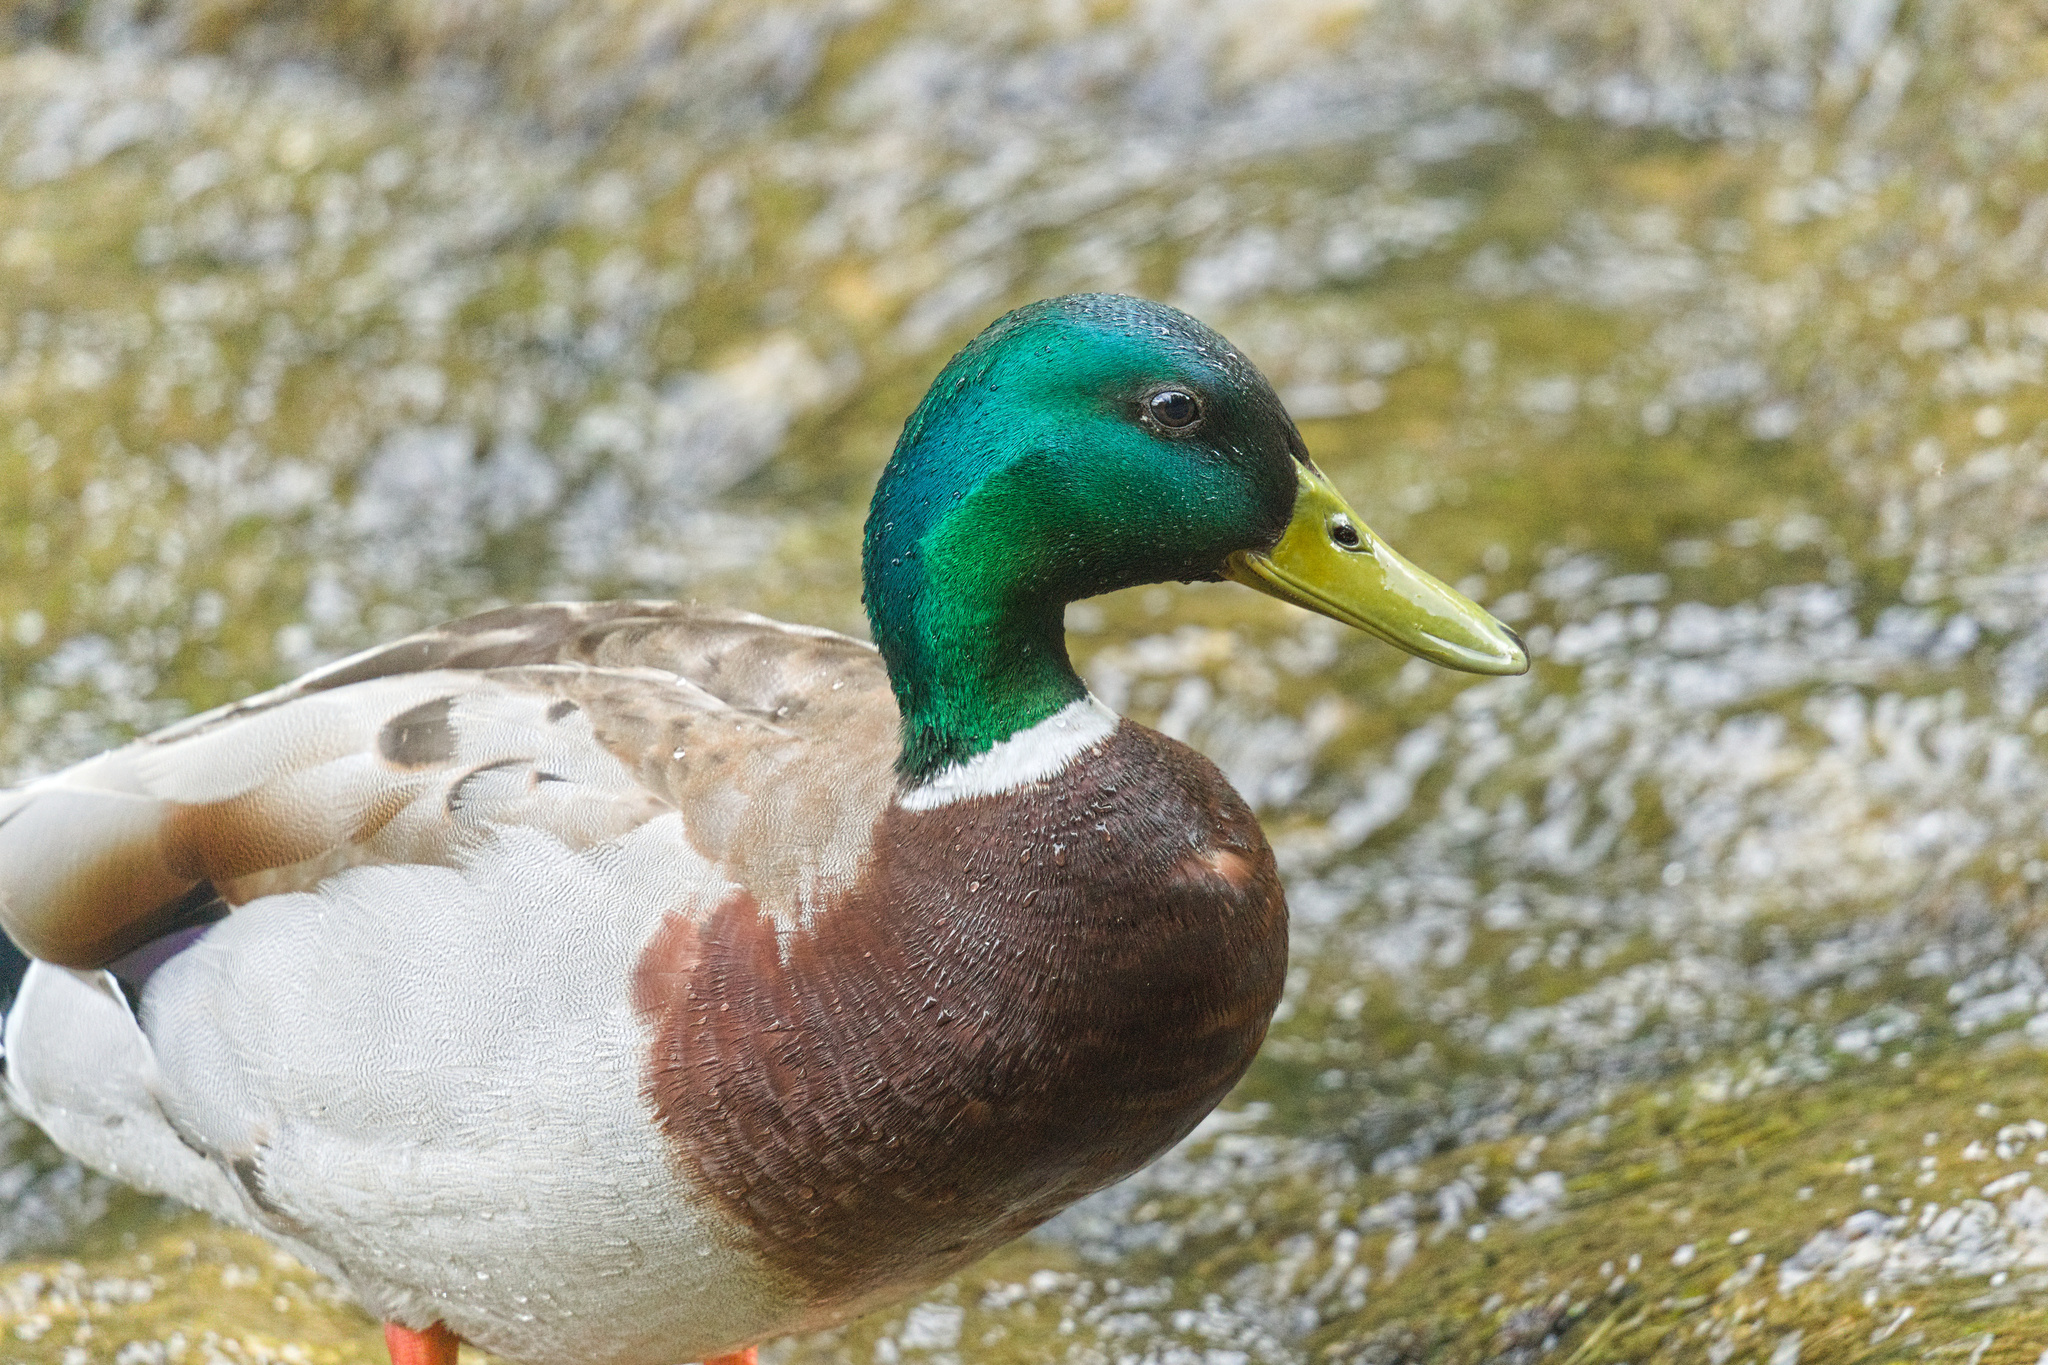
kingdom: Animalia
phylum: Chordata
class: Aves
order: Anseriformes
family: Anatidae
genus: Anas
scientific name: Anas platyrhynchos
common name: Mallard
